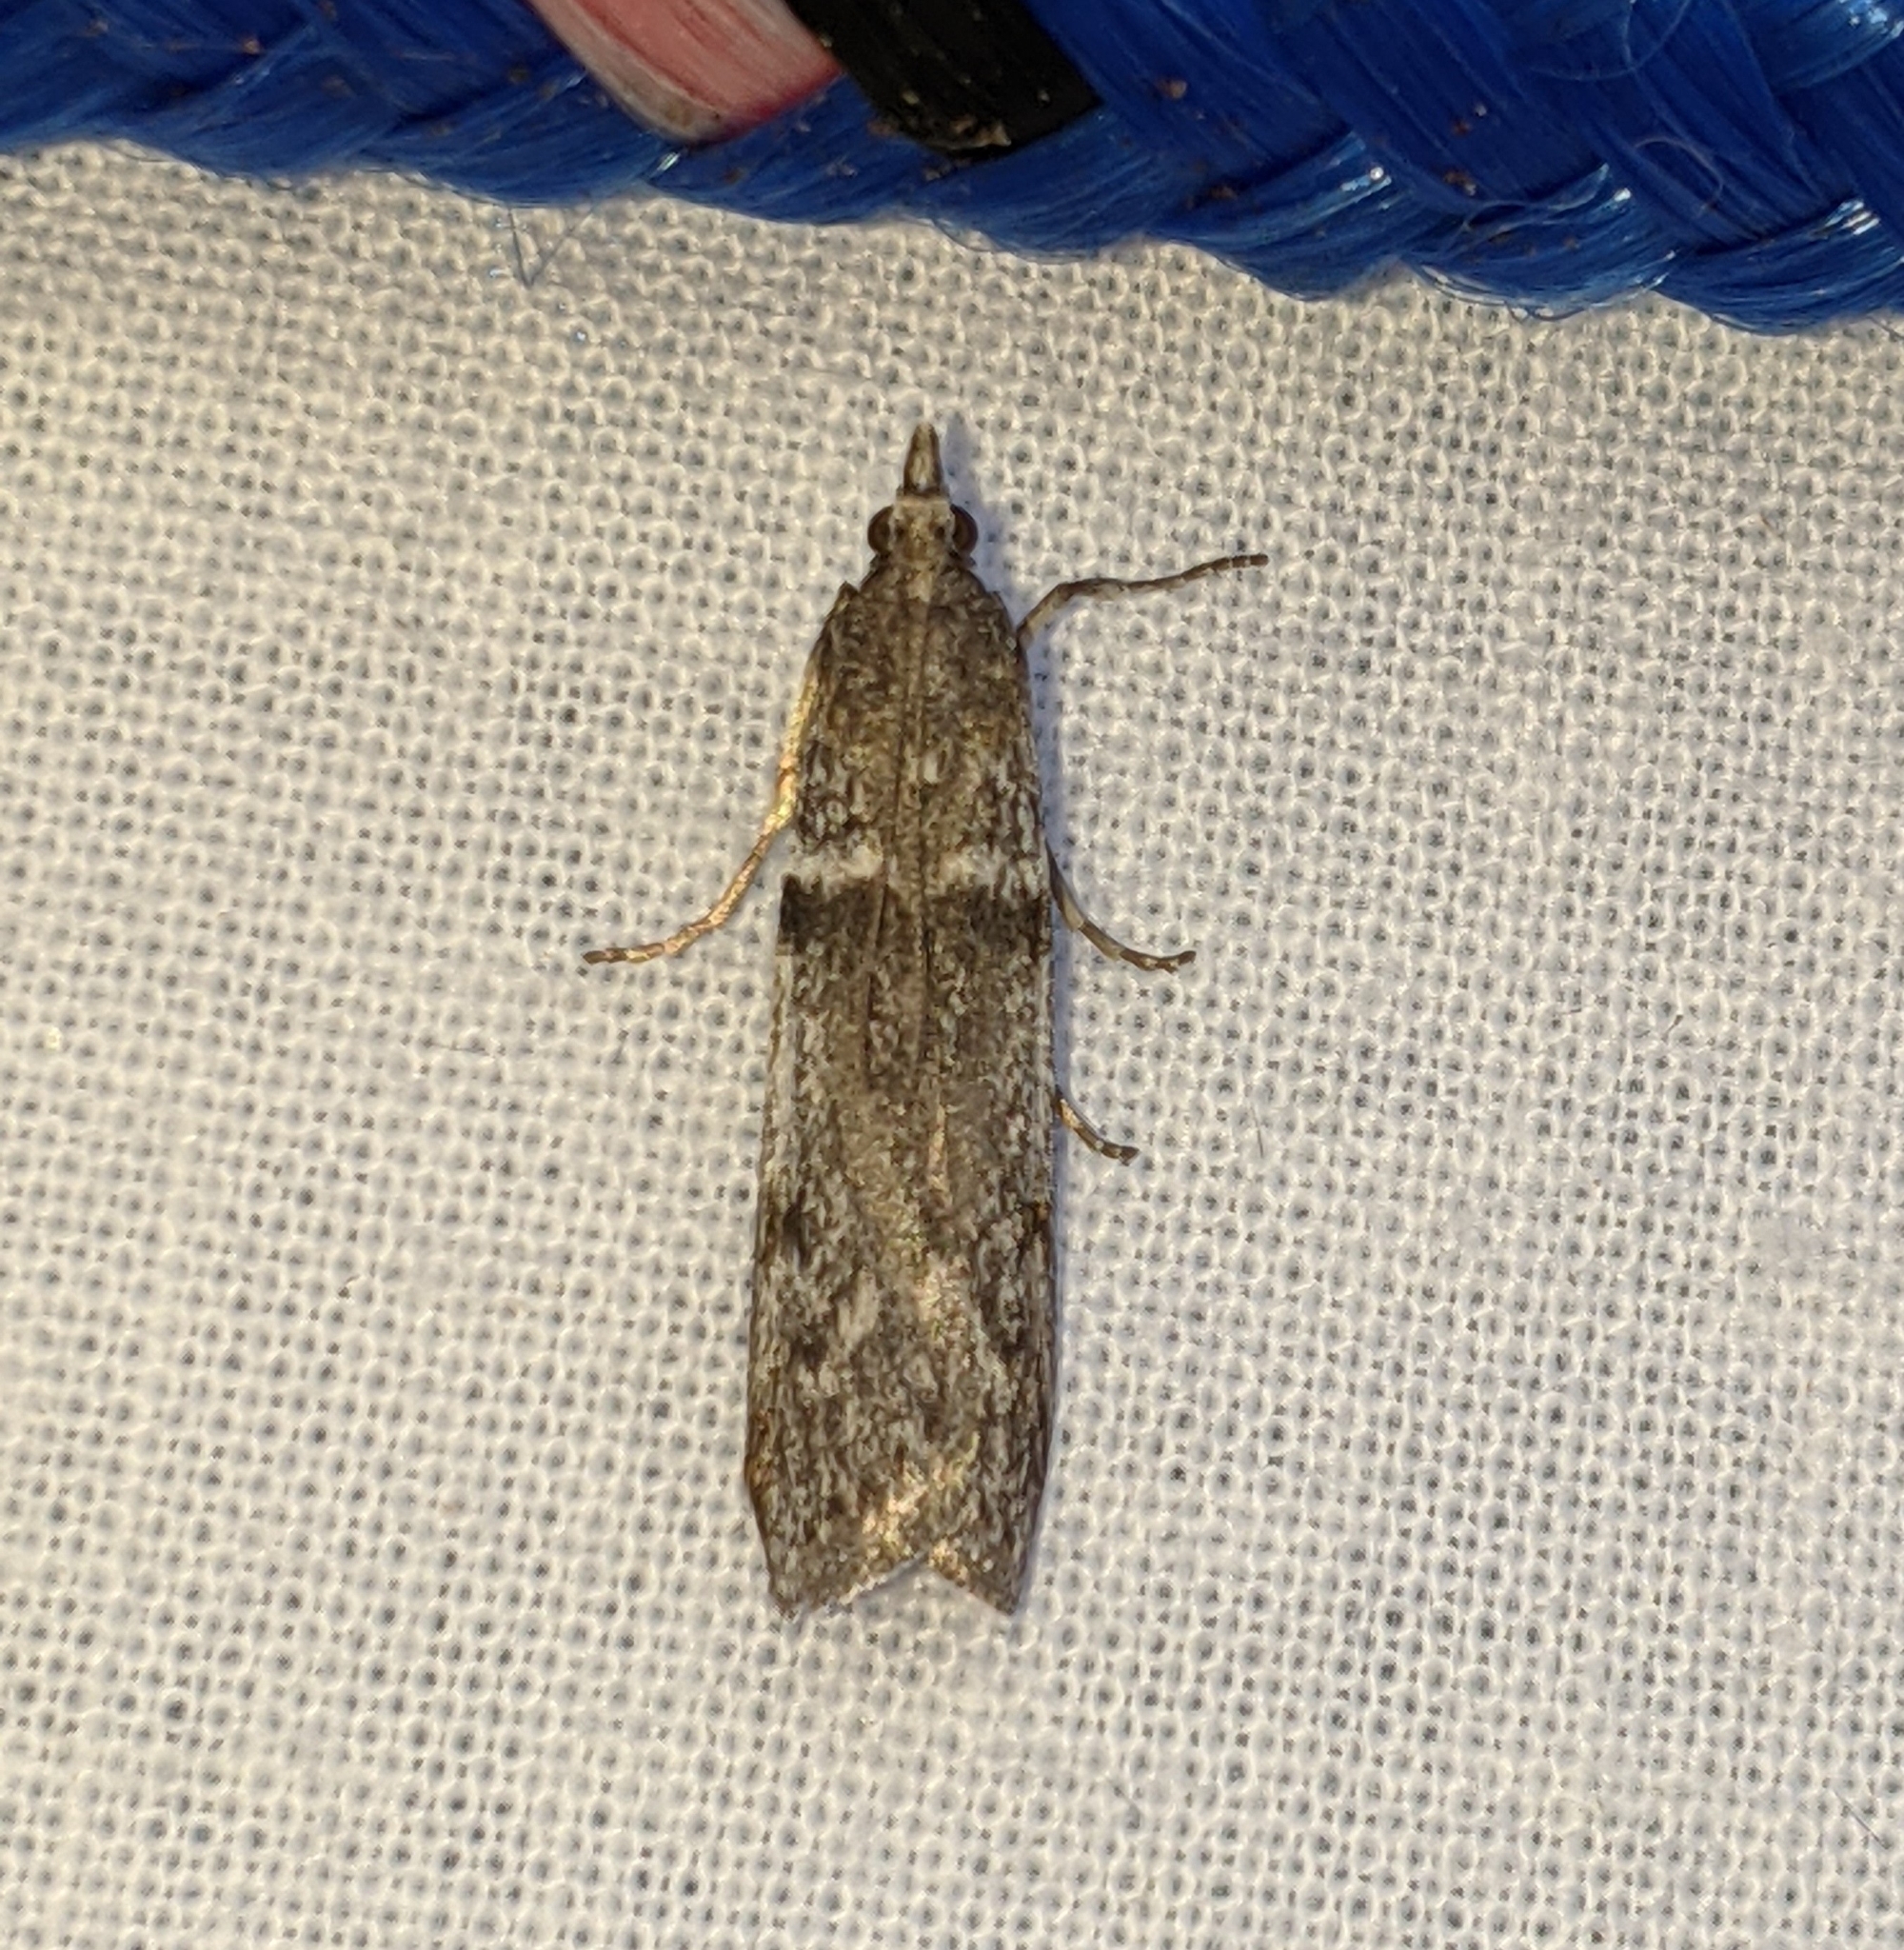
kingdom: Animalia
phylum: Arthropoda
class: Insecta
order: Lepidoptera
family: Pyralidae
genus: Zophodia
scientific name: Zophodia convolutella
